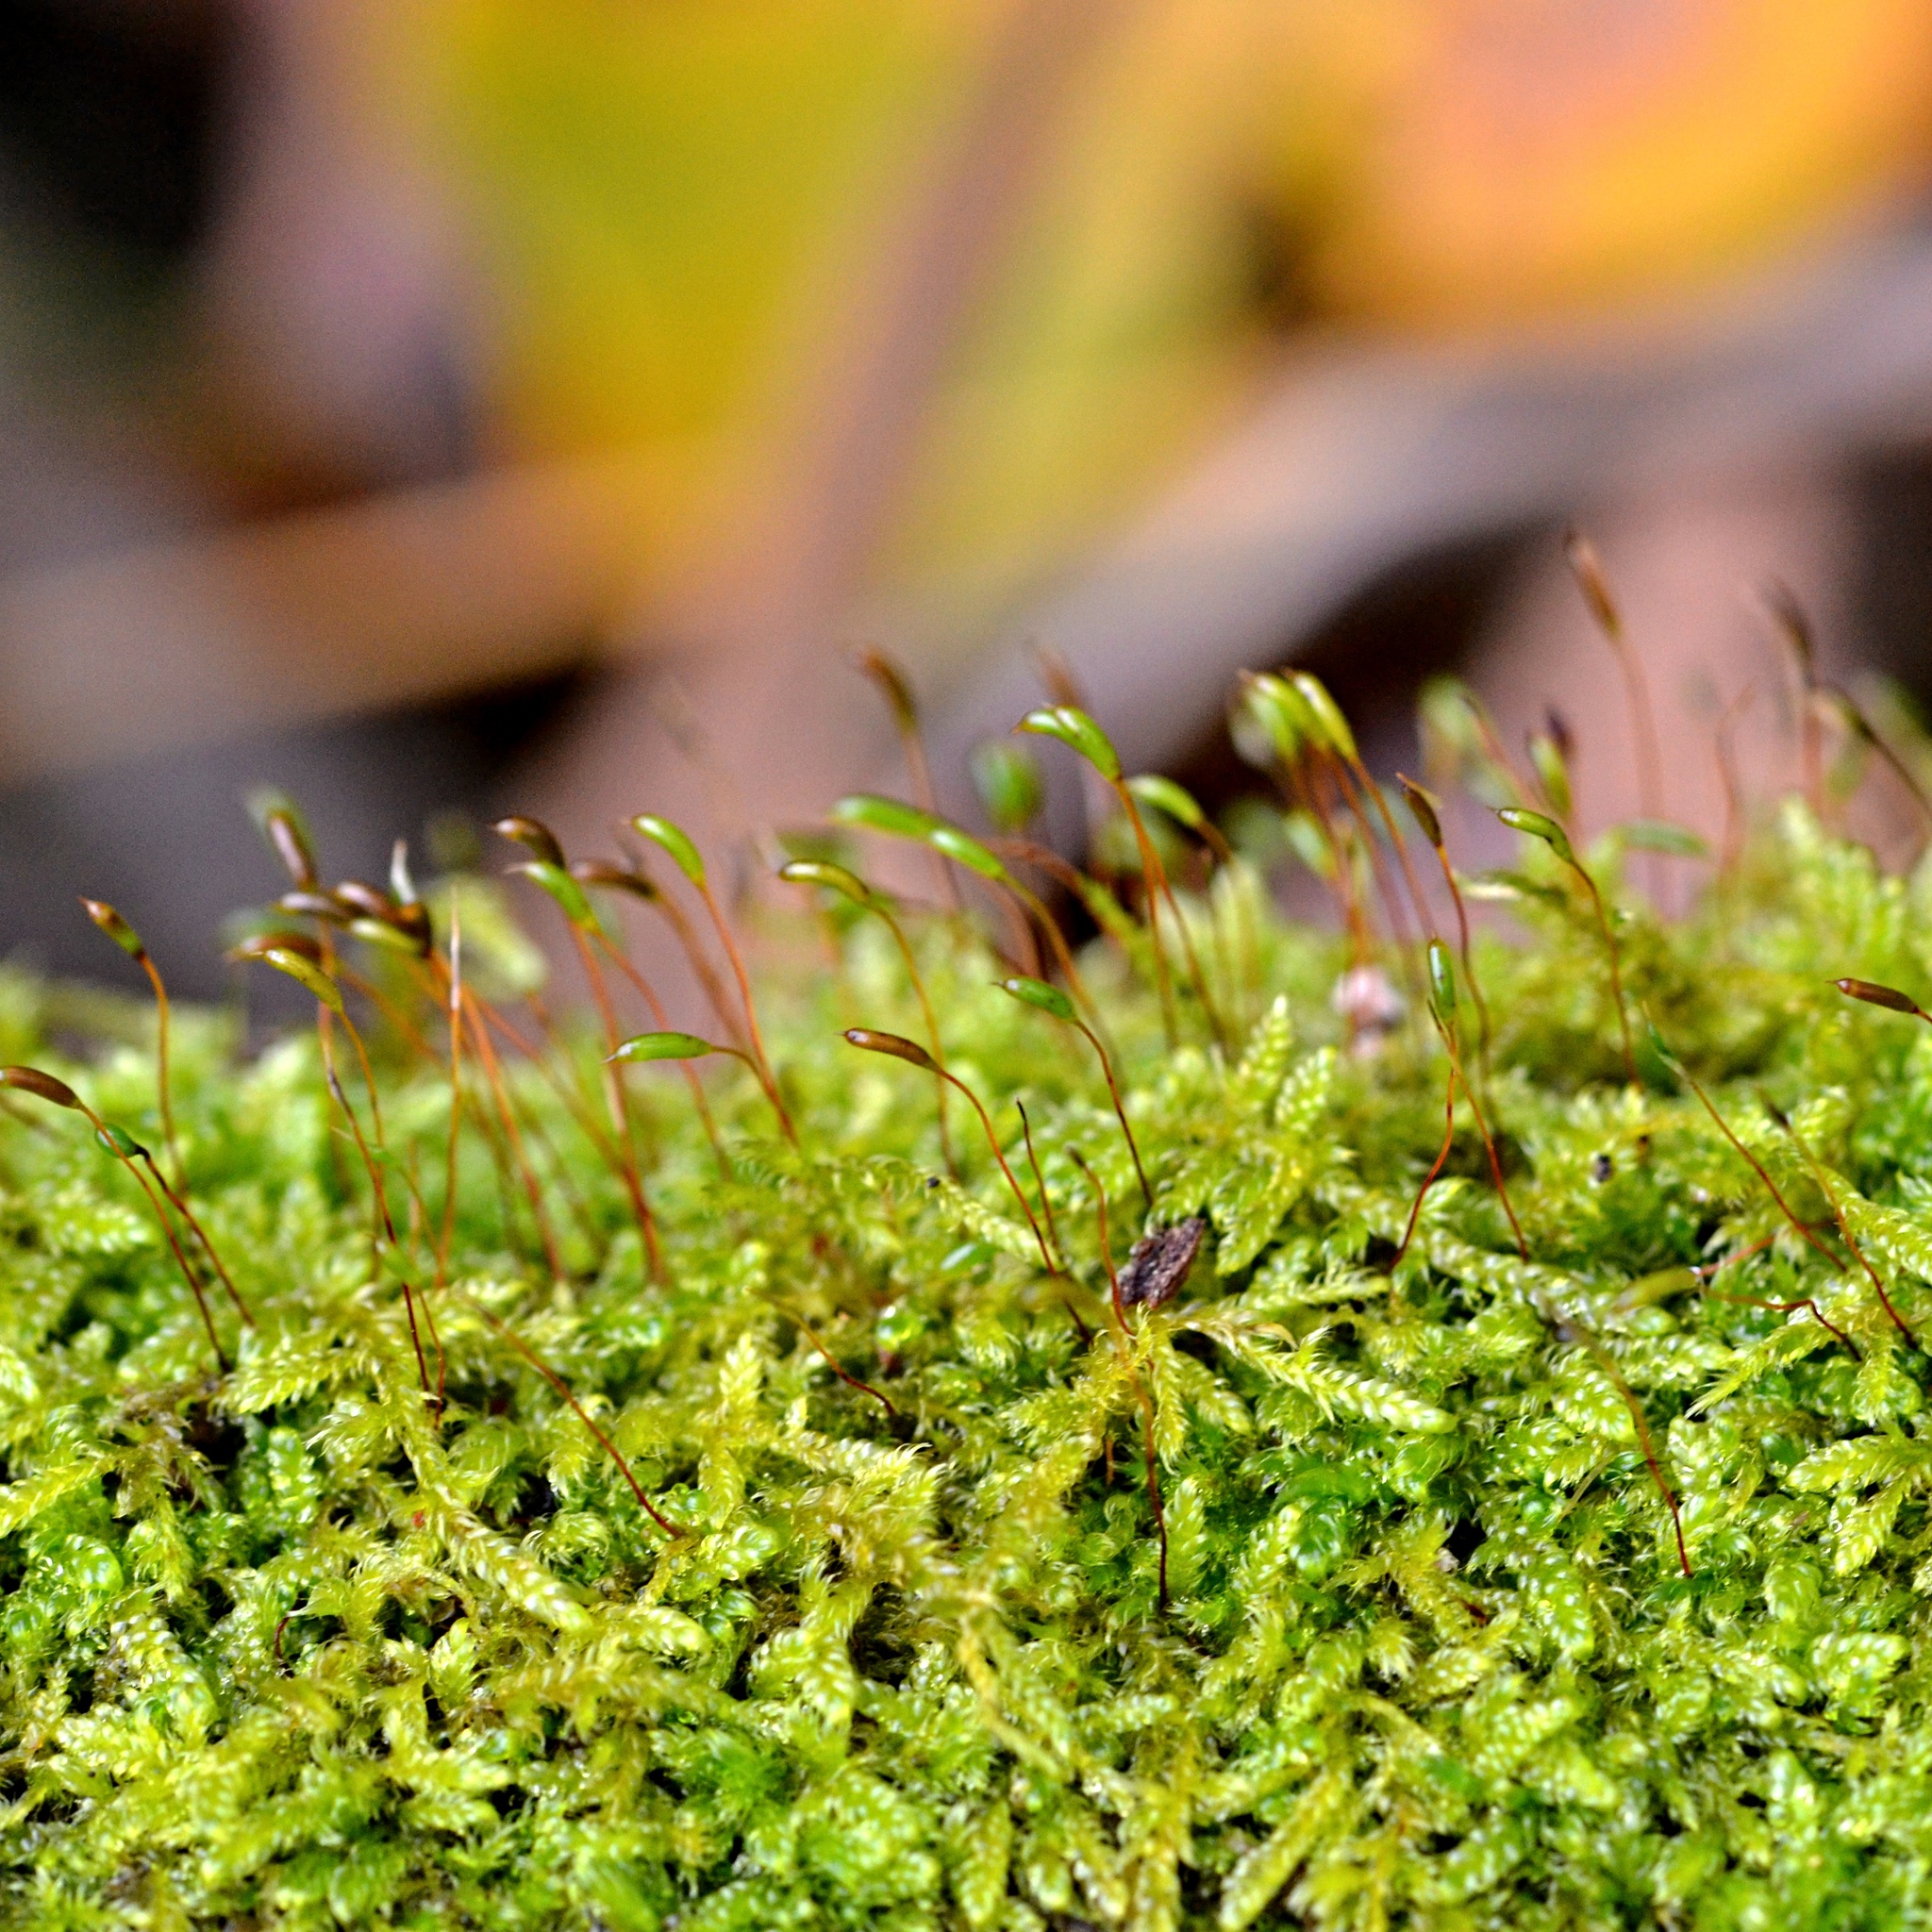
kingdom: Plantae
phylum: Bryophyta
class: Bryopsida
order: Hypnales
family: Hypnaceae
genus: Hypnum
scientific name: Hypnum cupressiforme
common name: Cypress-leaved plait-moss
